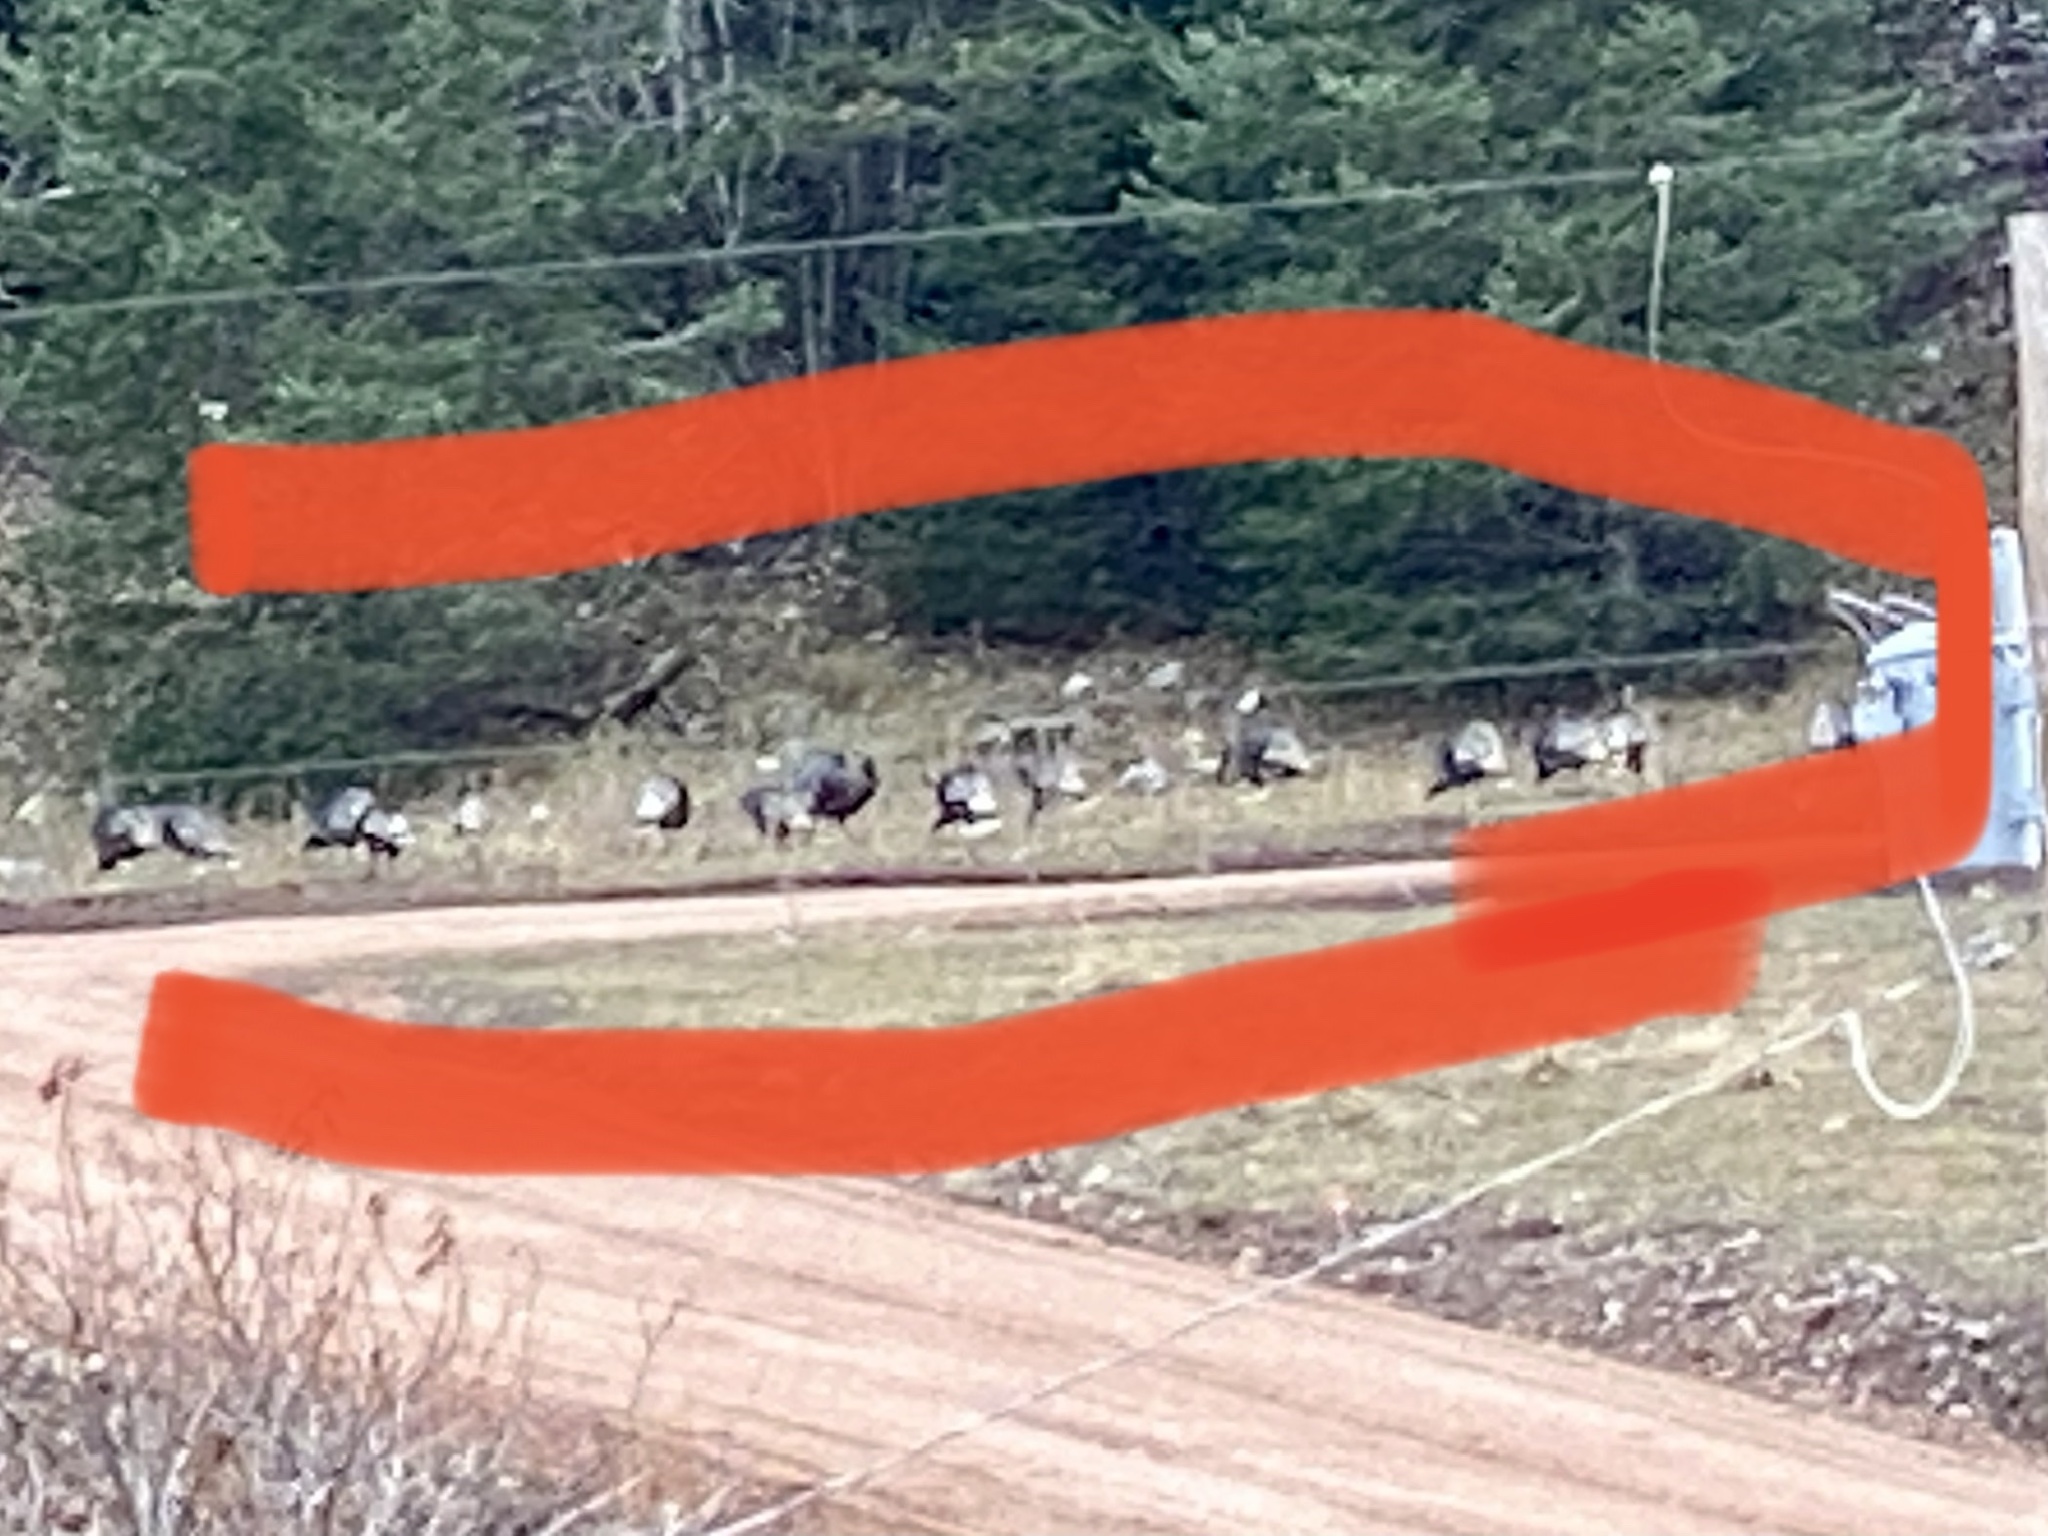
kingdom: Animalia
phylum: Chordata
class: Aves
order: Galliformes
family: Phasianidae
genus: Meleagris
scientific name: Meleagris gallopavo
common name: Wild turkey
